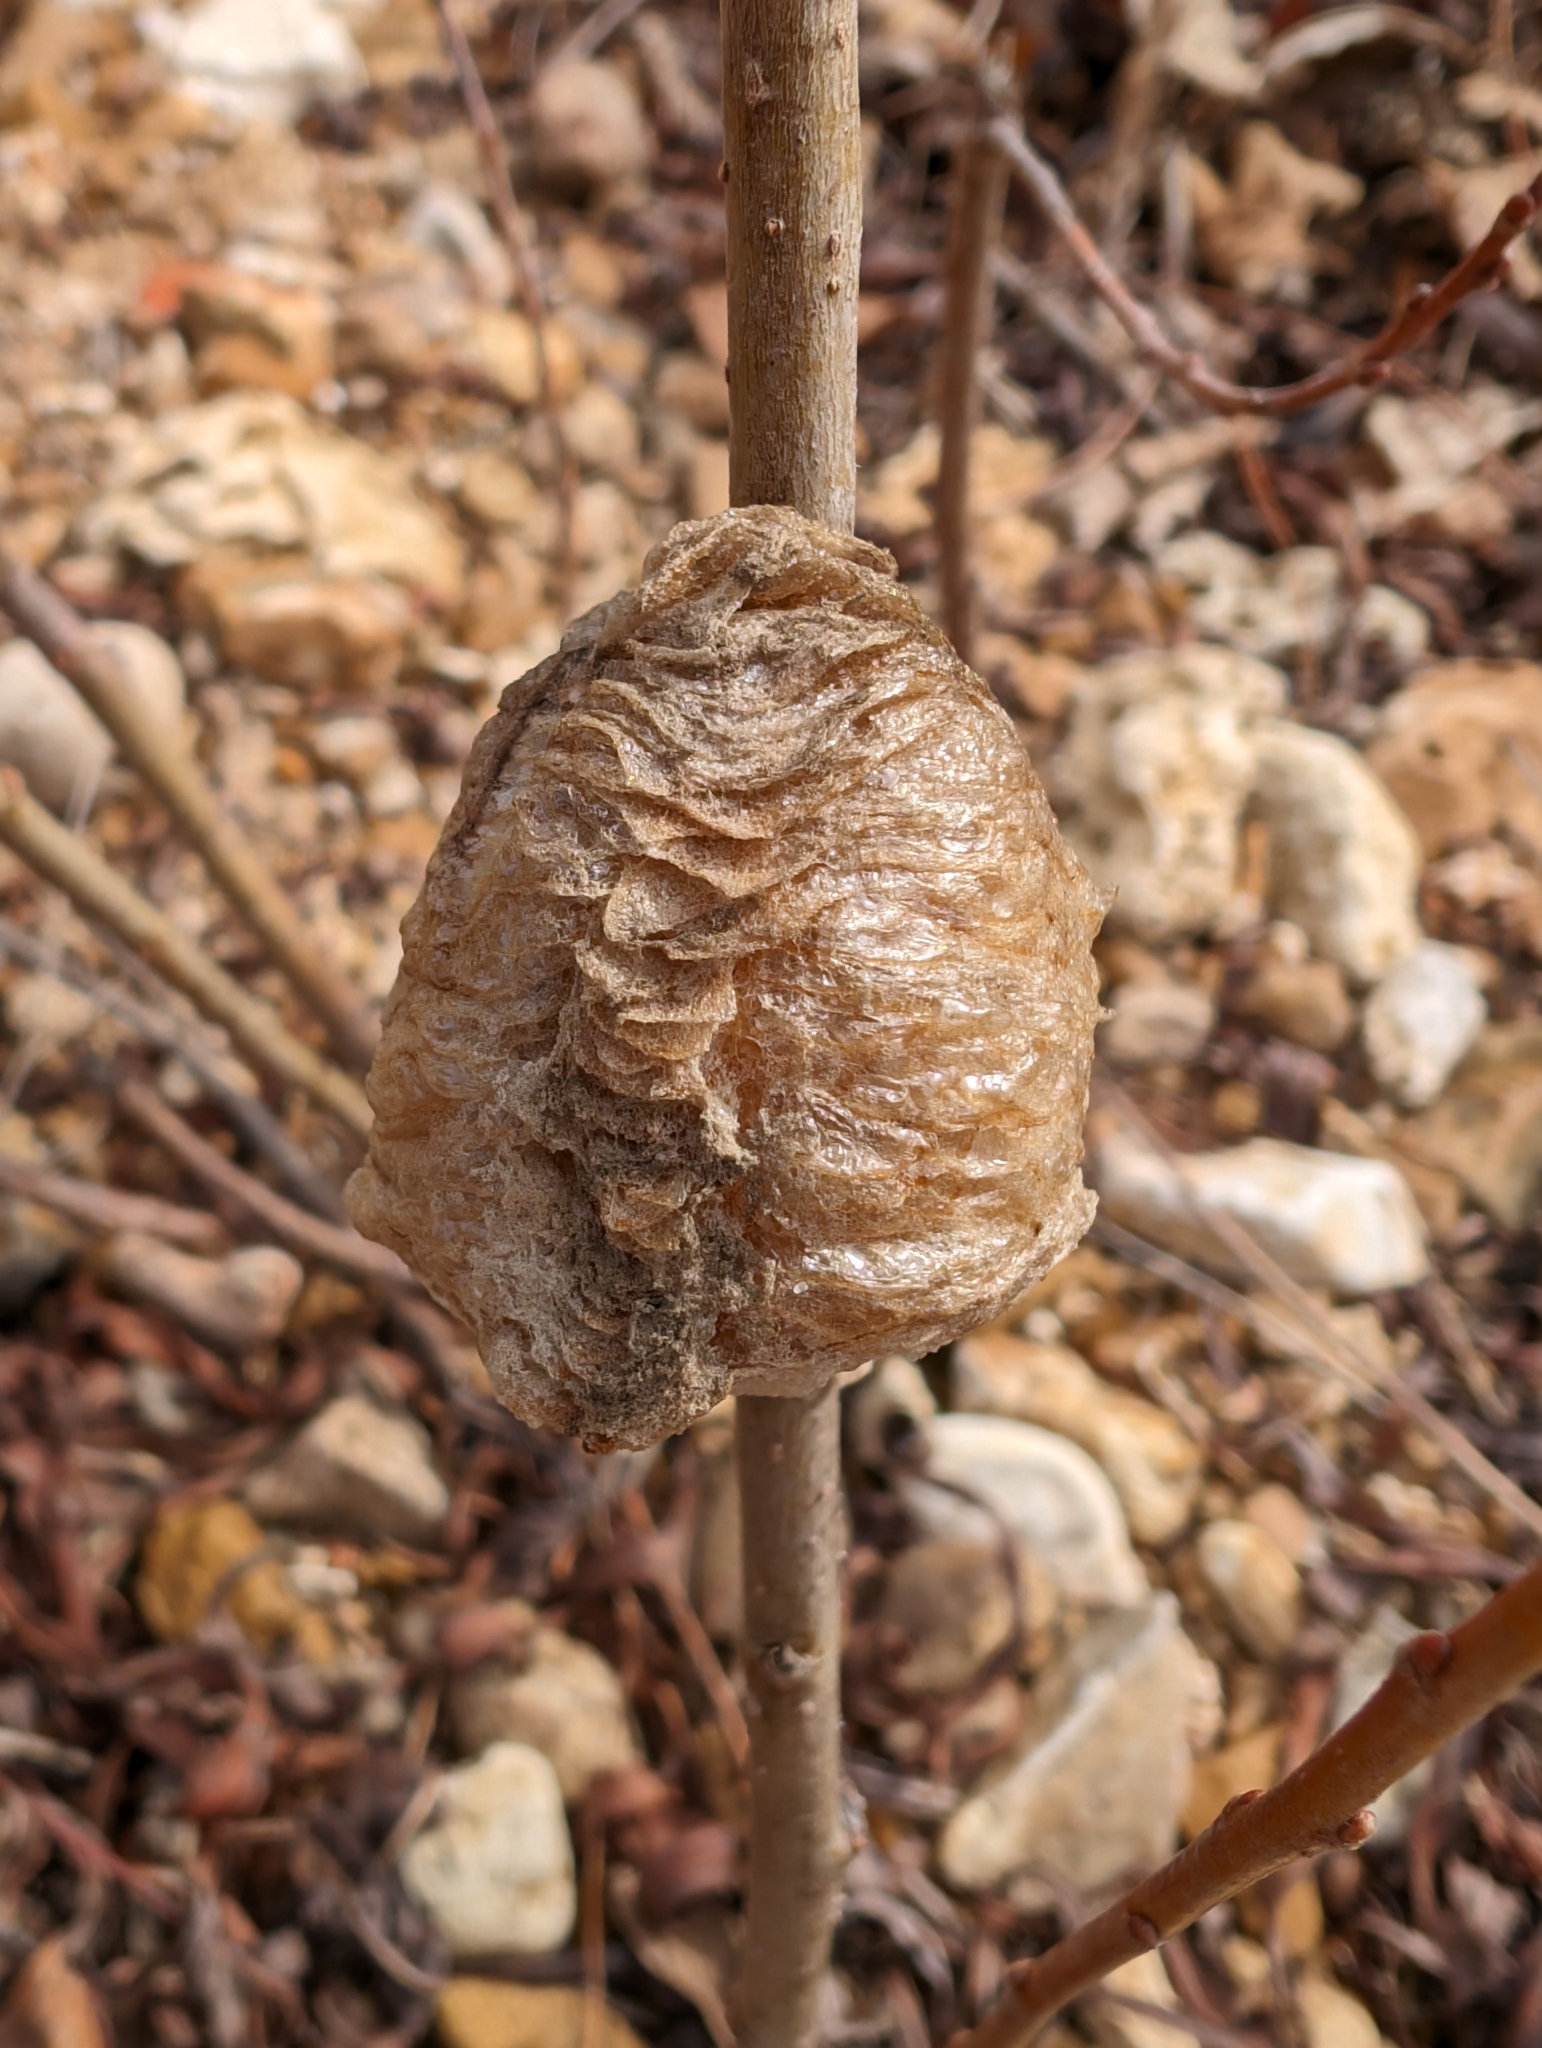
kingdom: Animalia
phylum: Arthropoda
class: Insecta
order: Mantodea
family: Mantidae
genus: Tenodera
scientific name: Tenodera sinensis
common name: Chinese mantis
